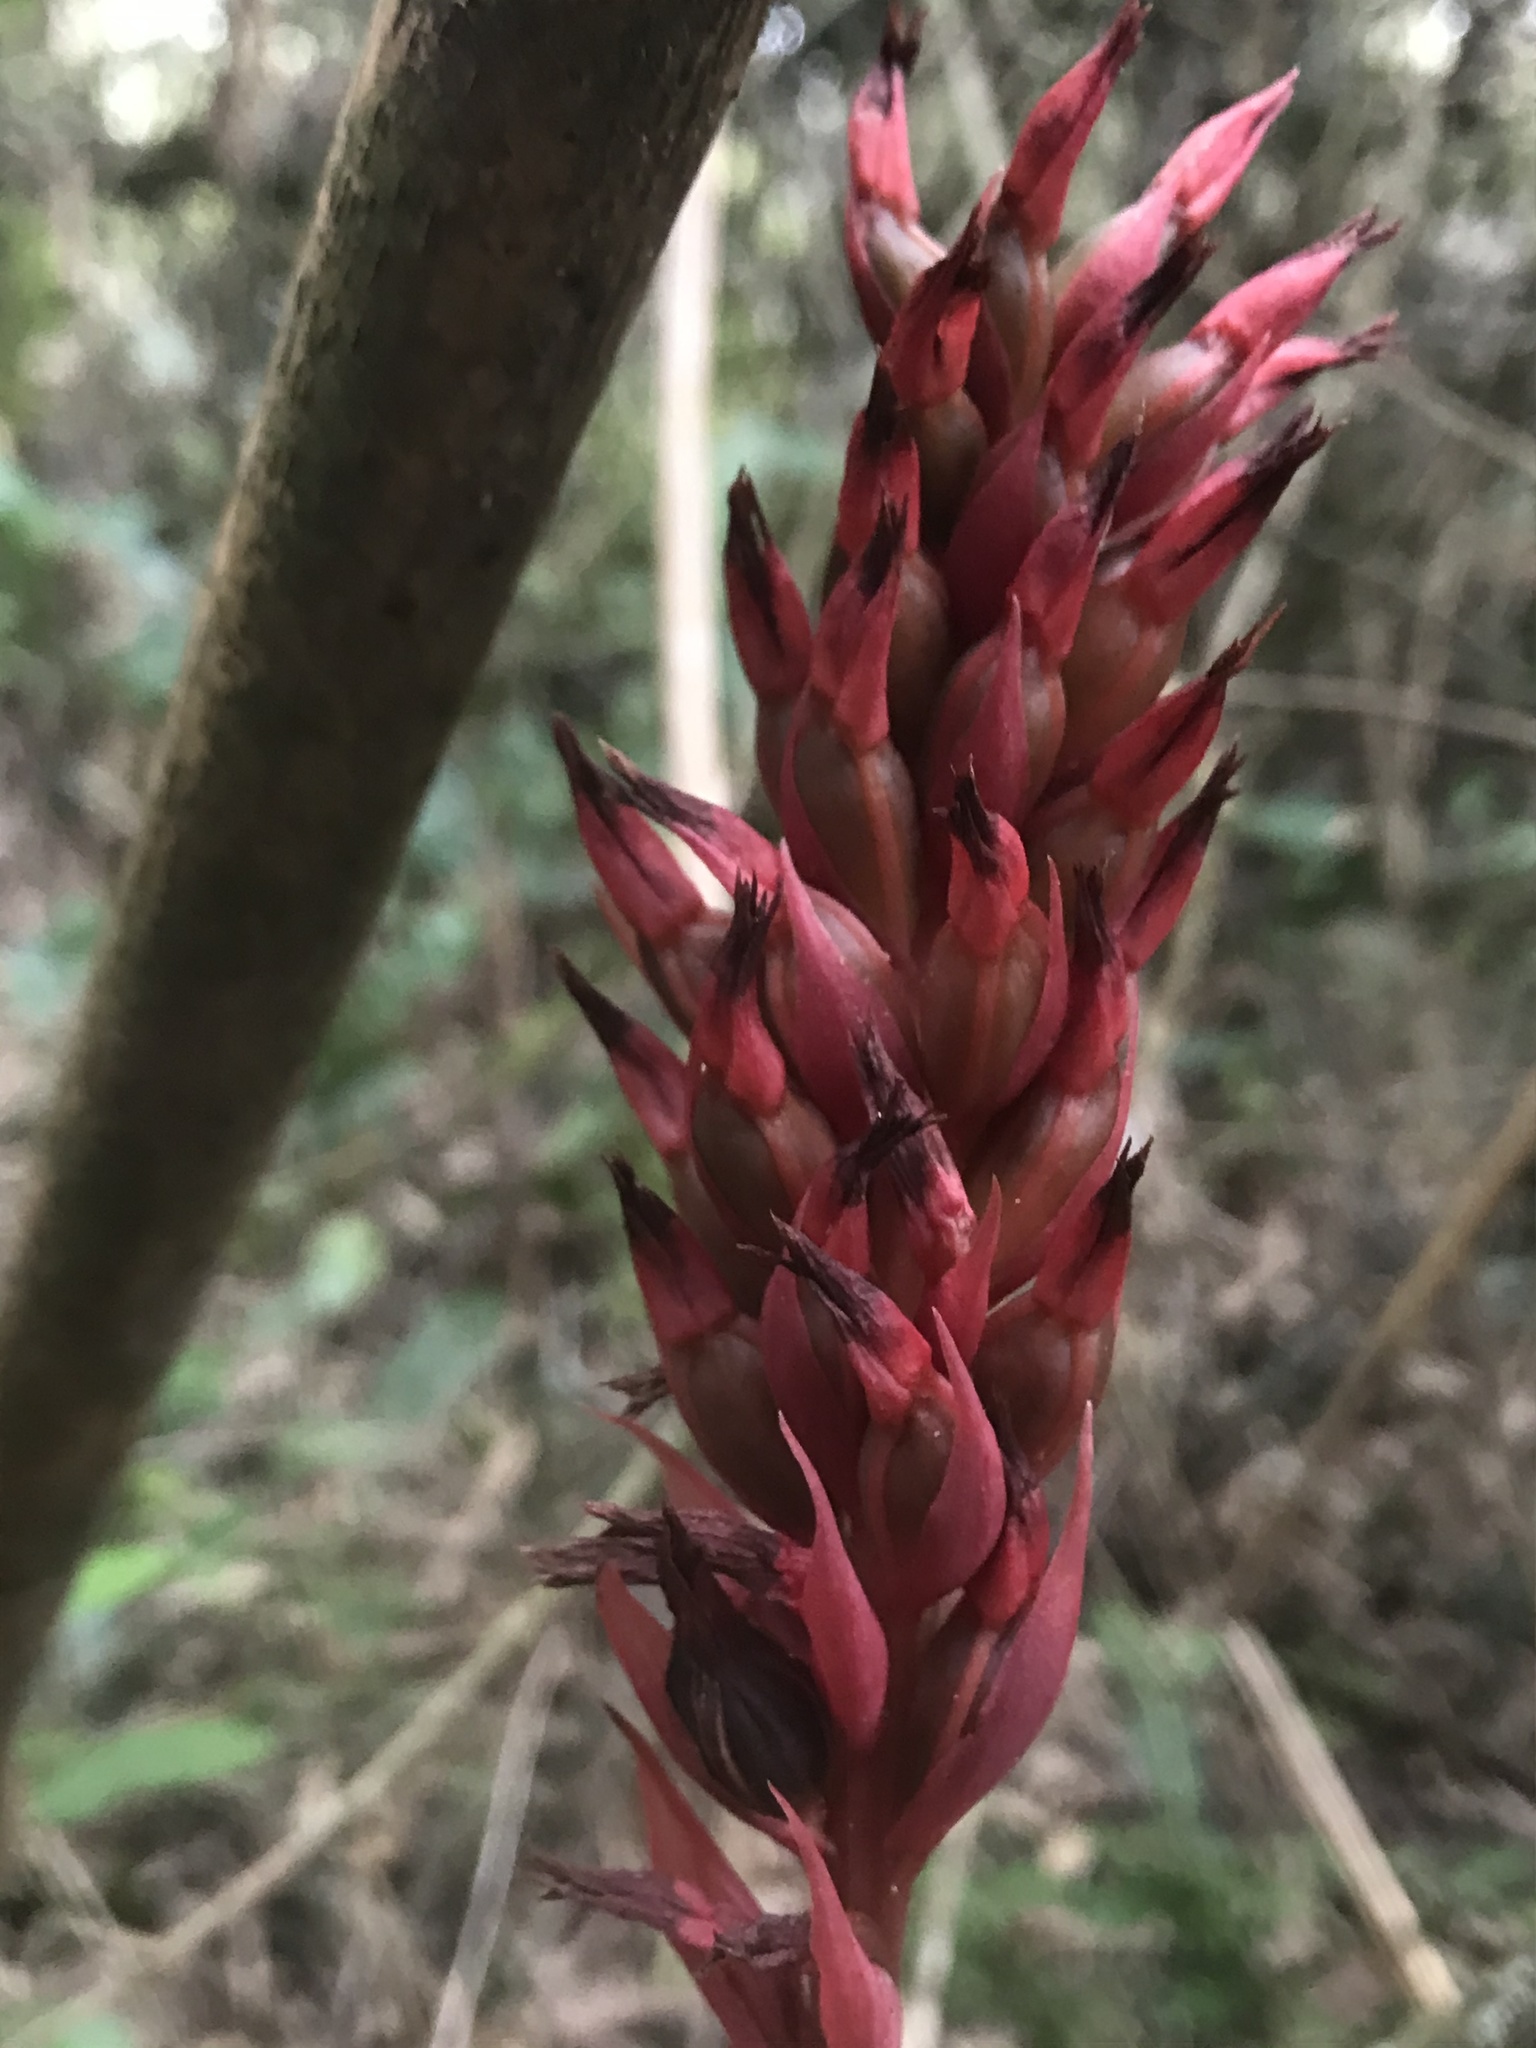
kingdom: Plantae
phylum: Tracheophyta
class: Liliopsida
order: Asparagales
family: Orchidaceae
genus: Stenorrhynchos
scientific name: Stenorrhynchos albidomaculatum
